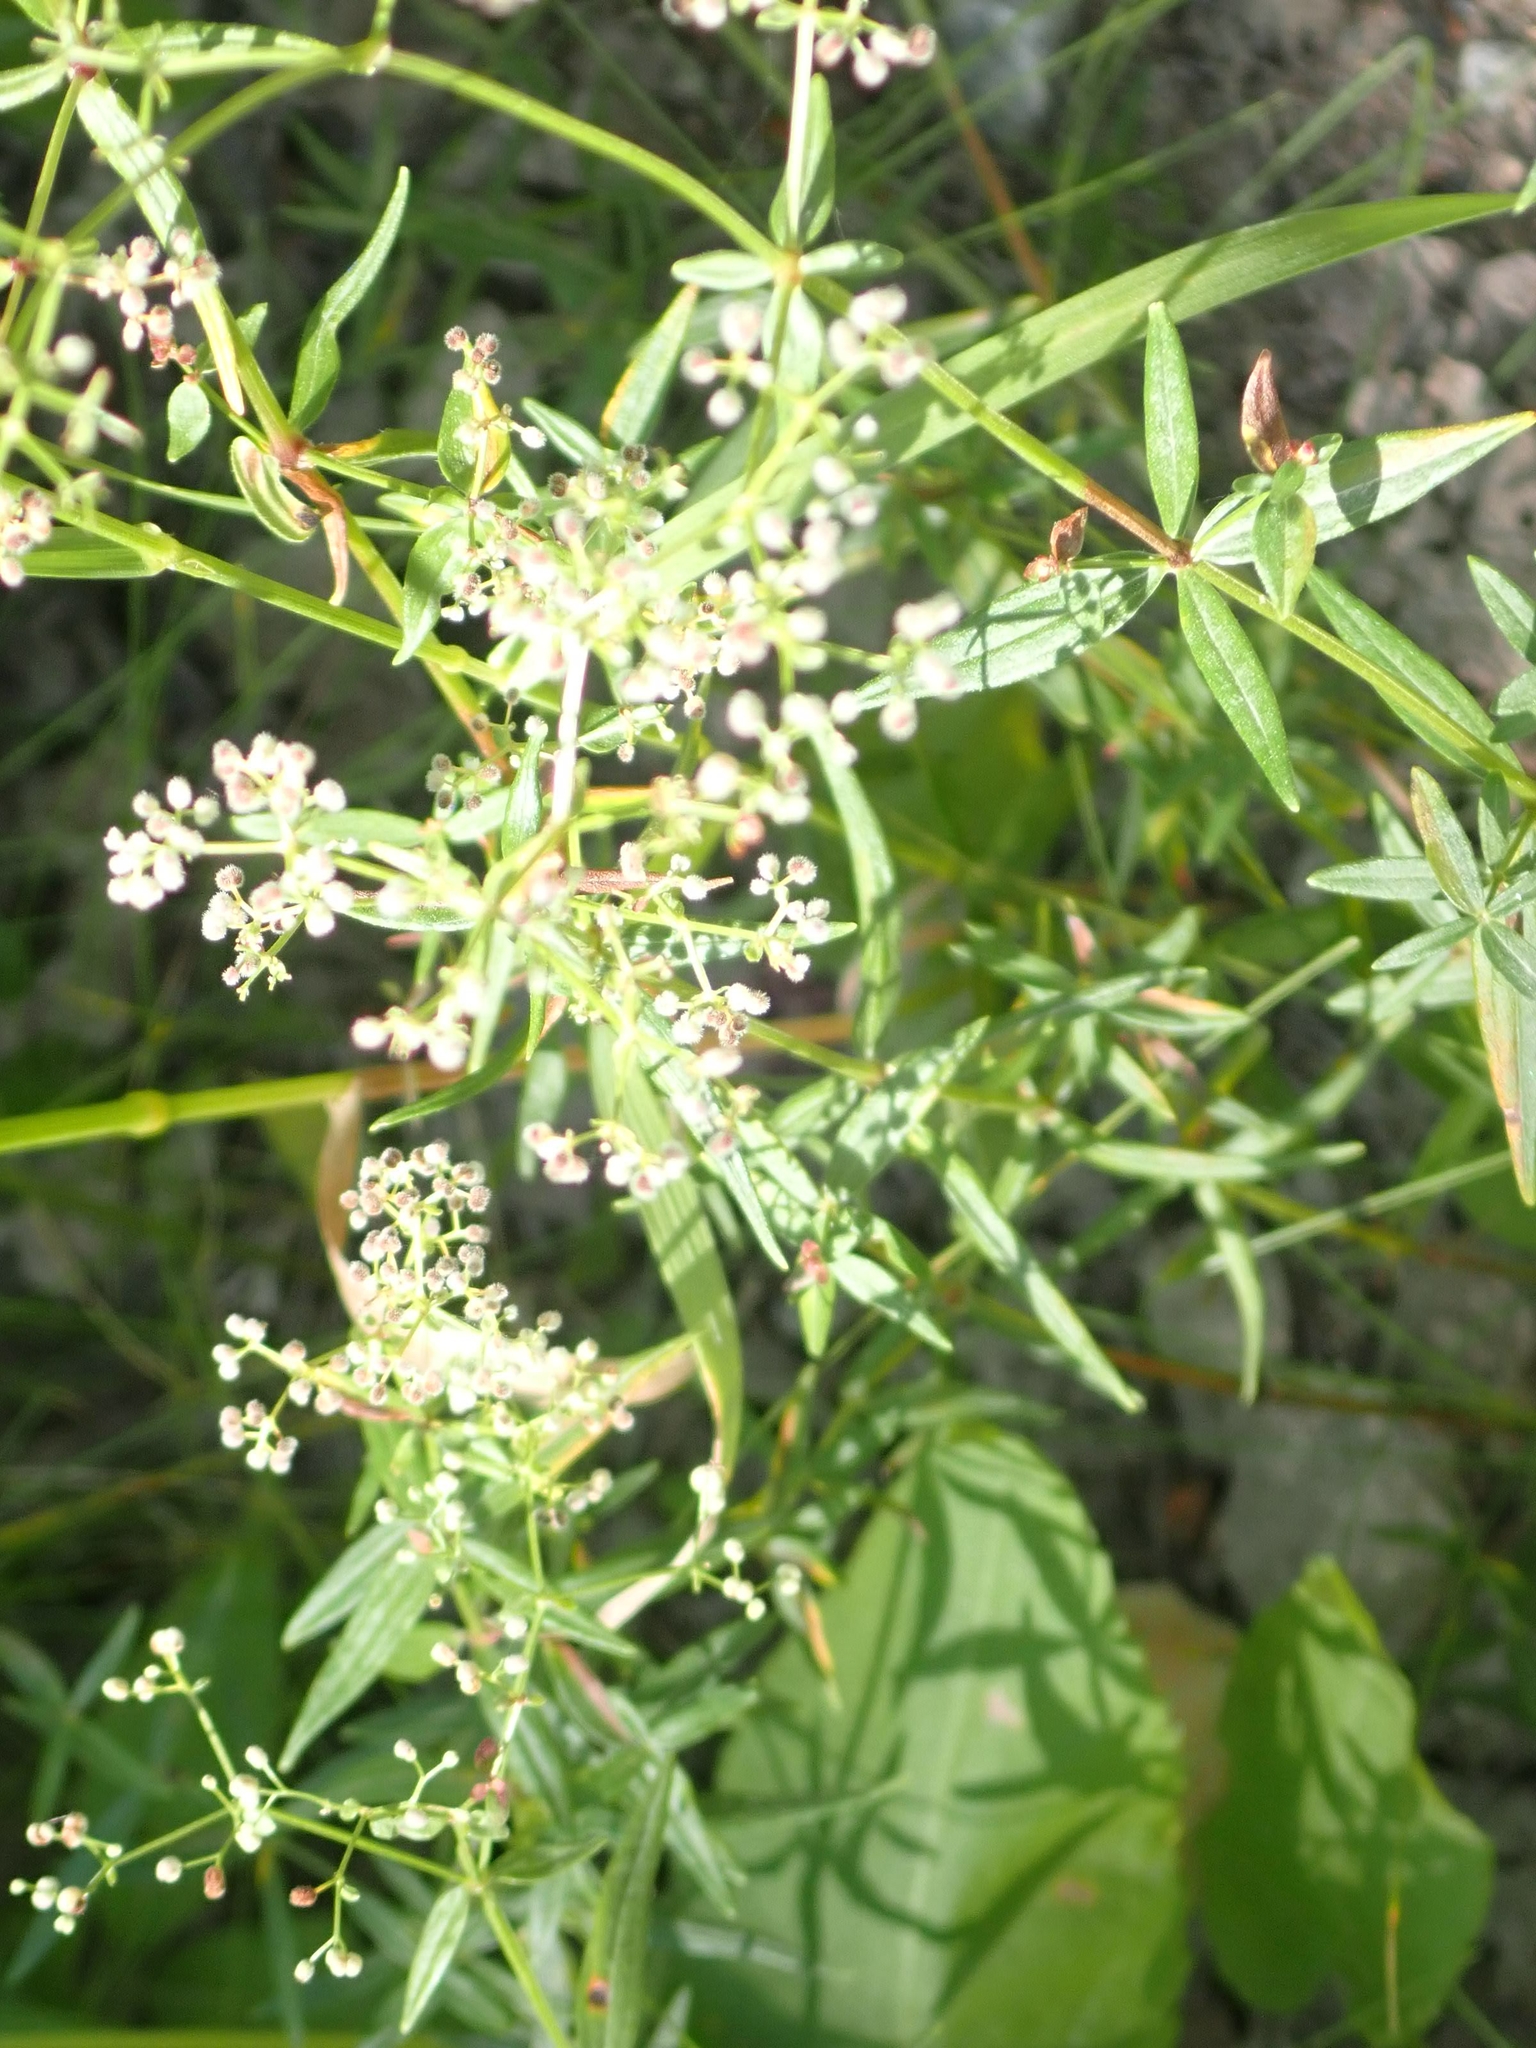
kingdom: Plantae
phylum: Tracheophyta
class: Magnoliopsida
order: Gentianales
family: Rubiaceae
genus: Galium
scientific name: Galium boreale
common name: Northern bedstraw
